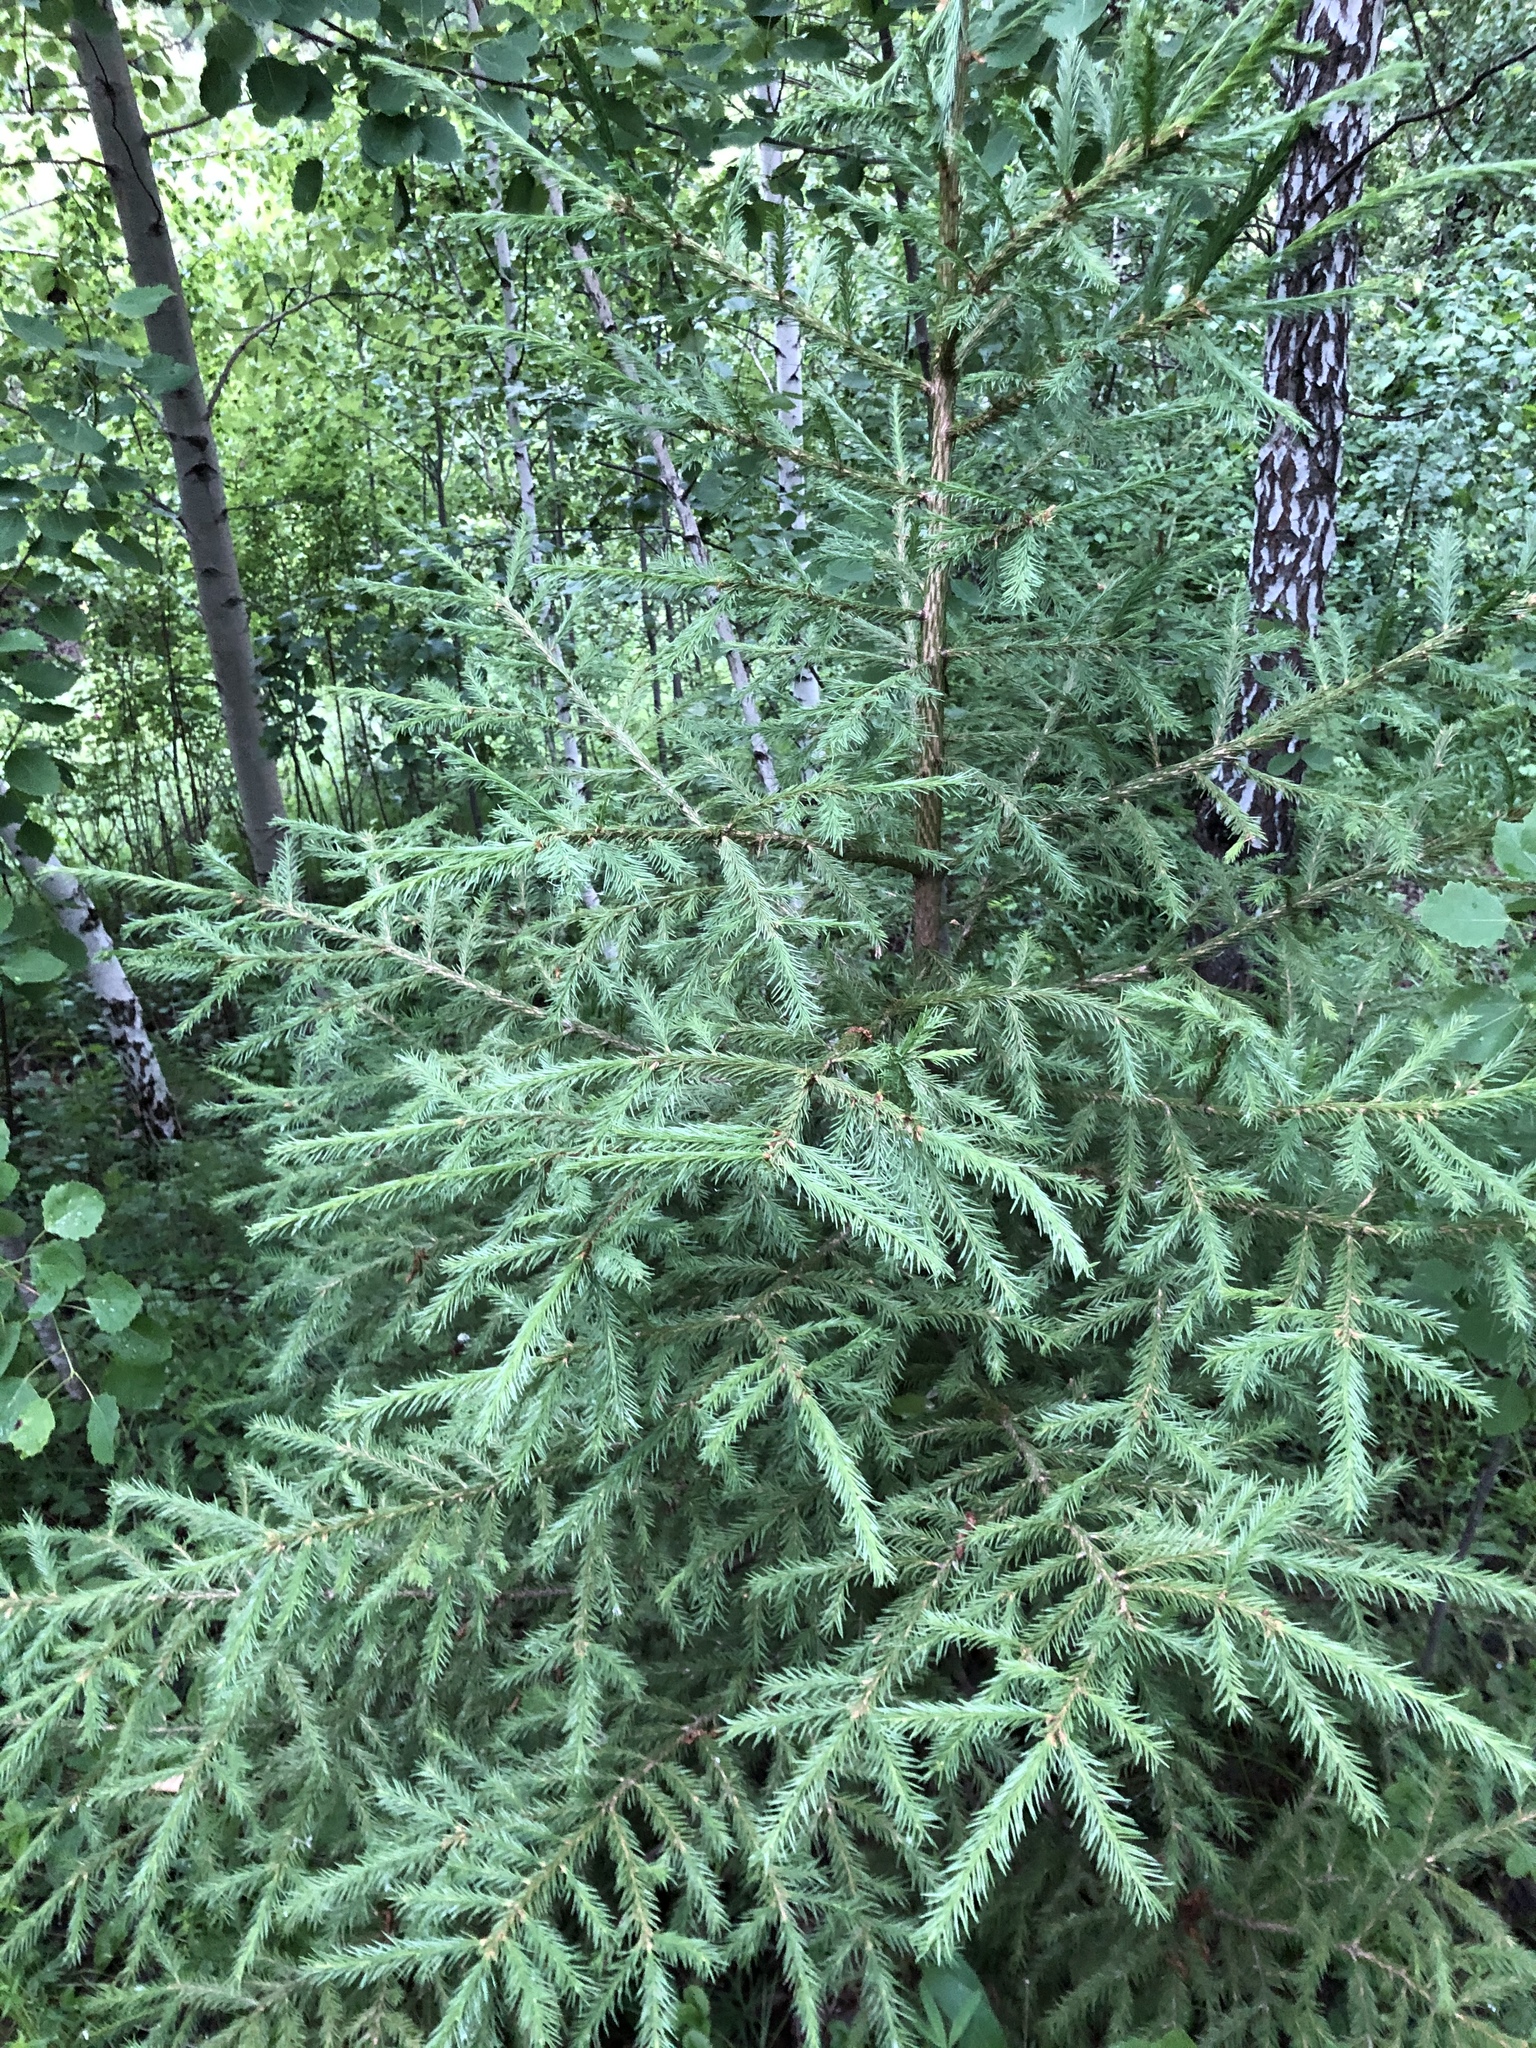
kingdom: Plantae
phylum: Tracheophyta
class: Pinopsida
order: Pinales
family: Pinaceae
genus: Picea
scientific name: Picea obovata
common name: Siberian spruce
